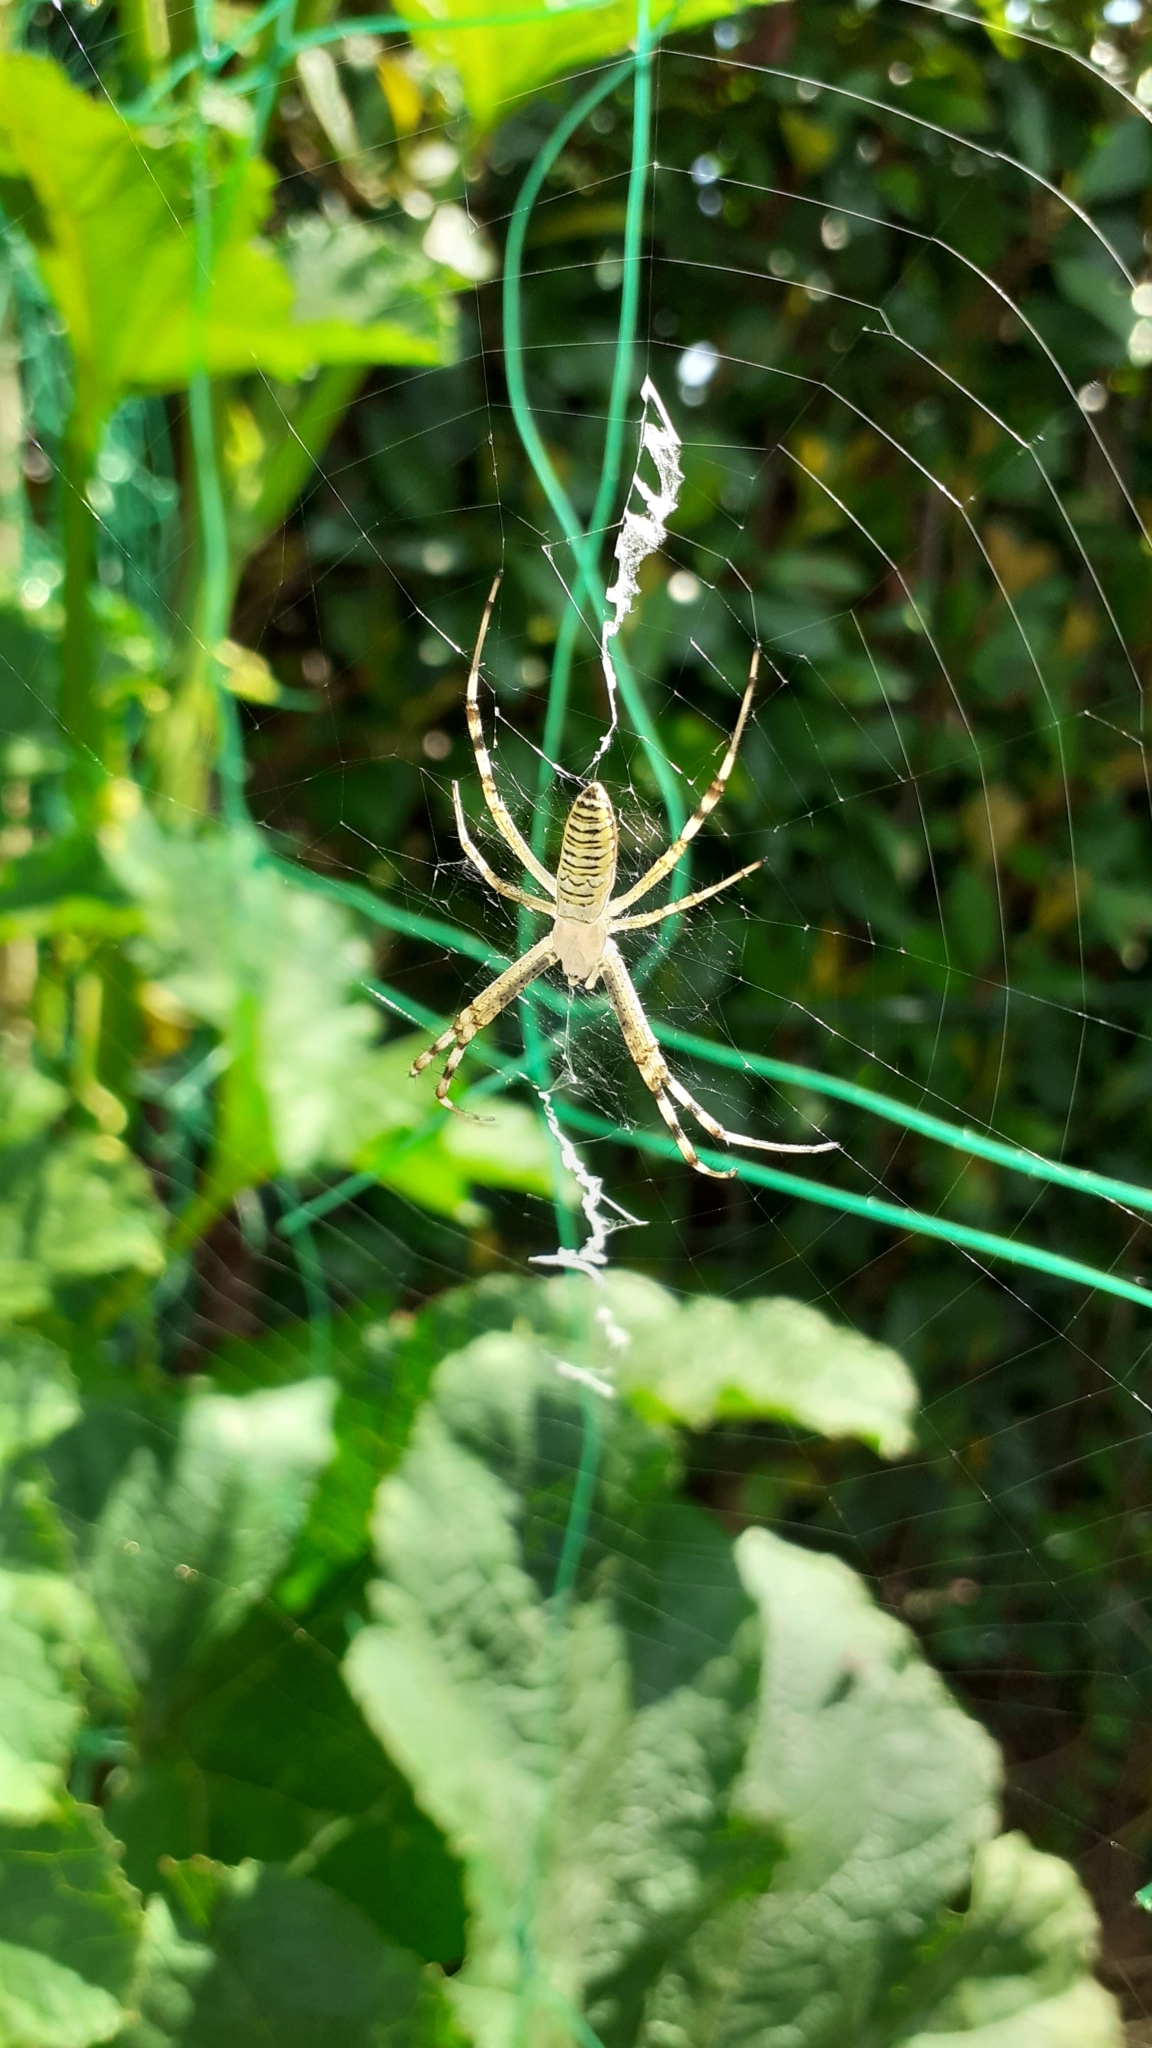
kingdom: Animalia
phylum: Arthropoda
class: Arachnida
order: Araneae
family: Araneidae
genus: Argiope
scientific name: Argiope bruennichi
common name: Wasp spider
